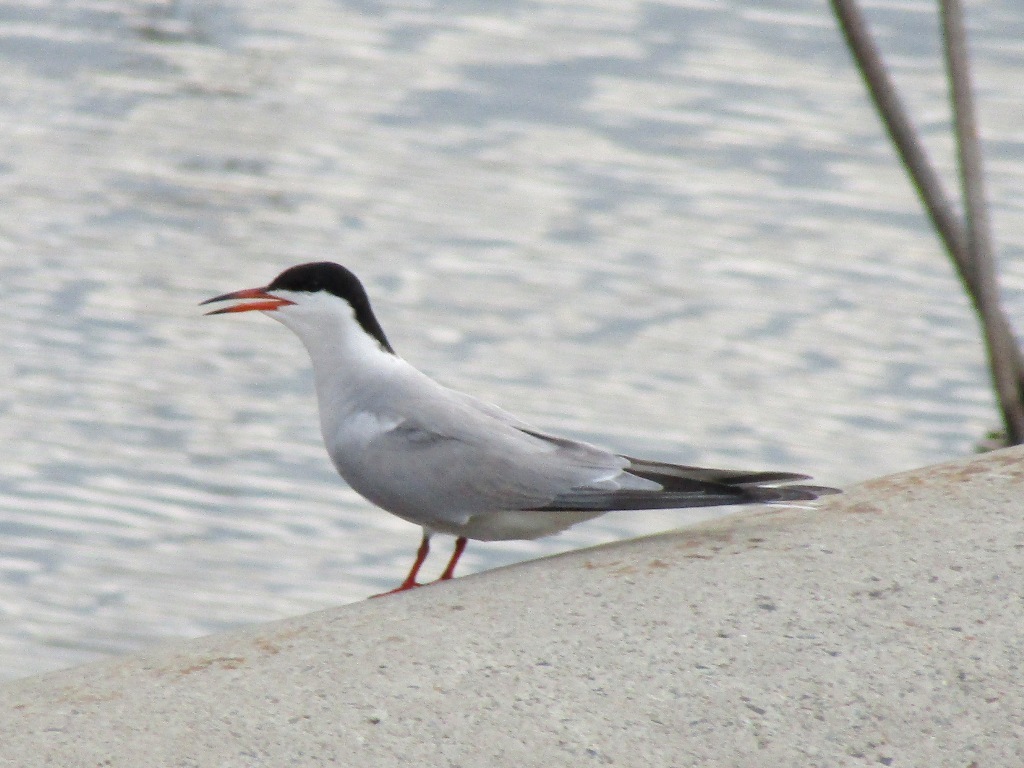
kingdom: Animalia
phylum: Chordata
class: Aves
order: Charadriiformes
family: Laridae
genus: Sterna
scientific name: Sterna hirundo
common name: Common tern
